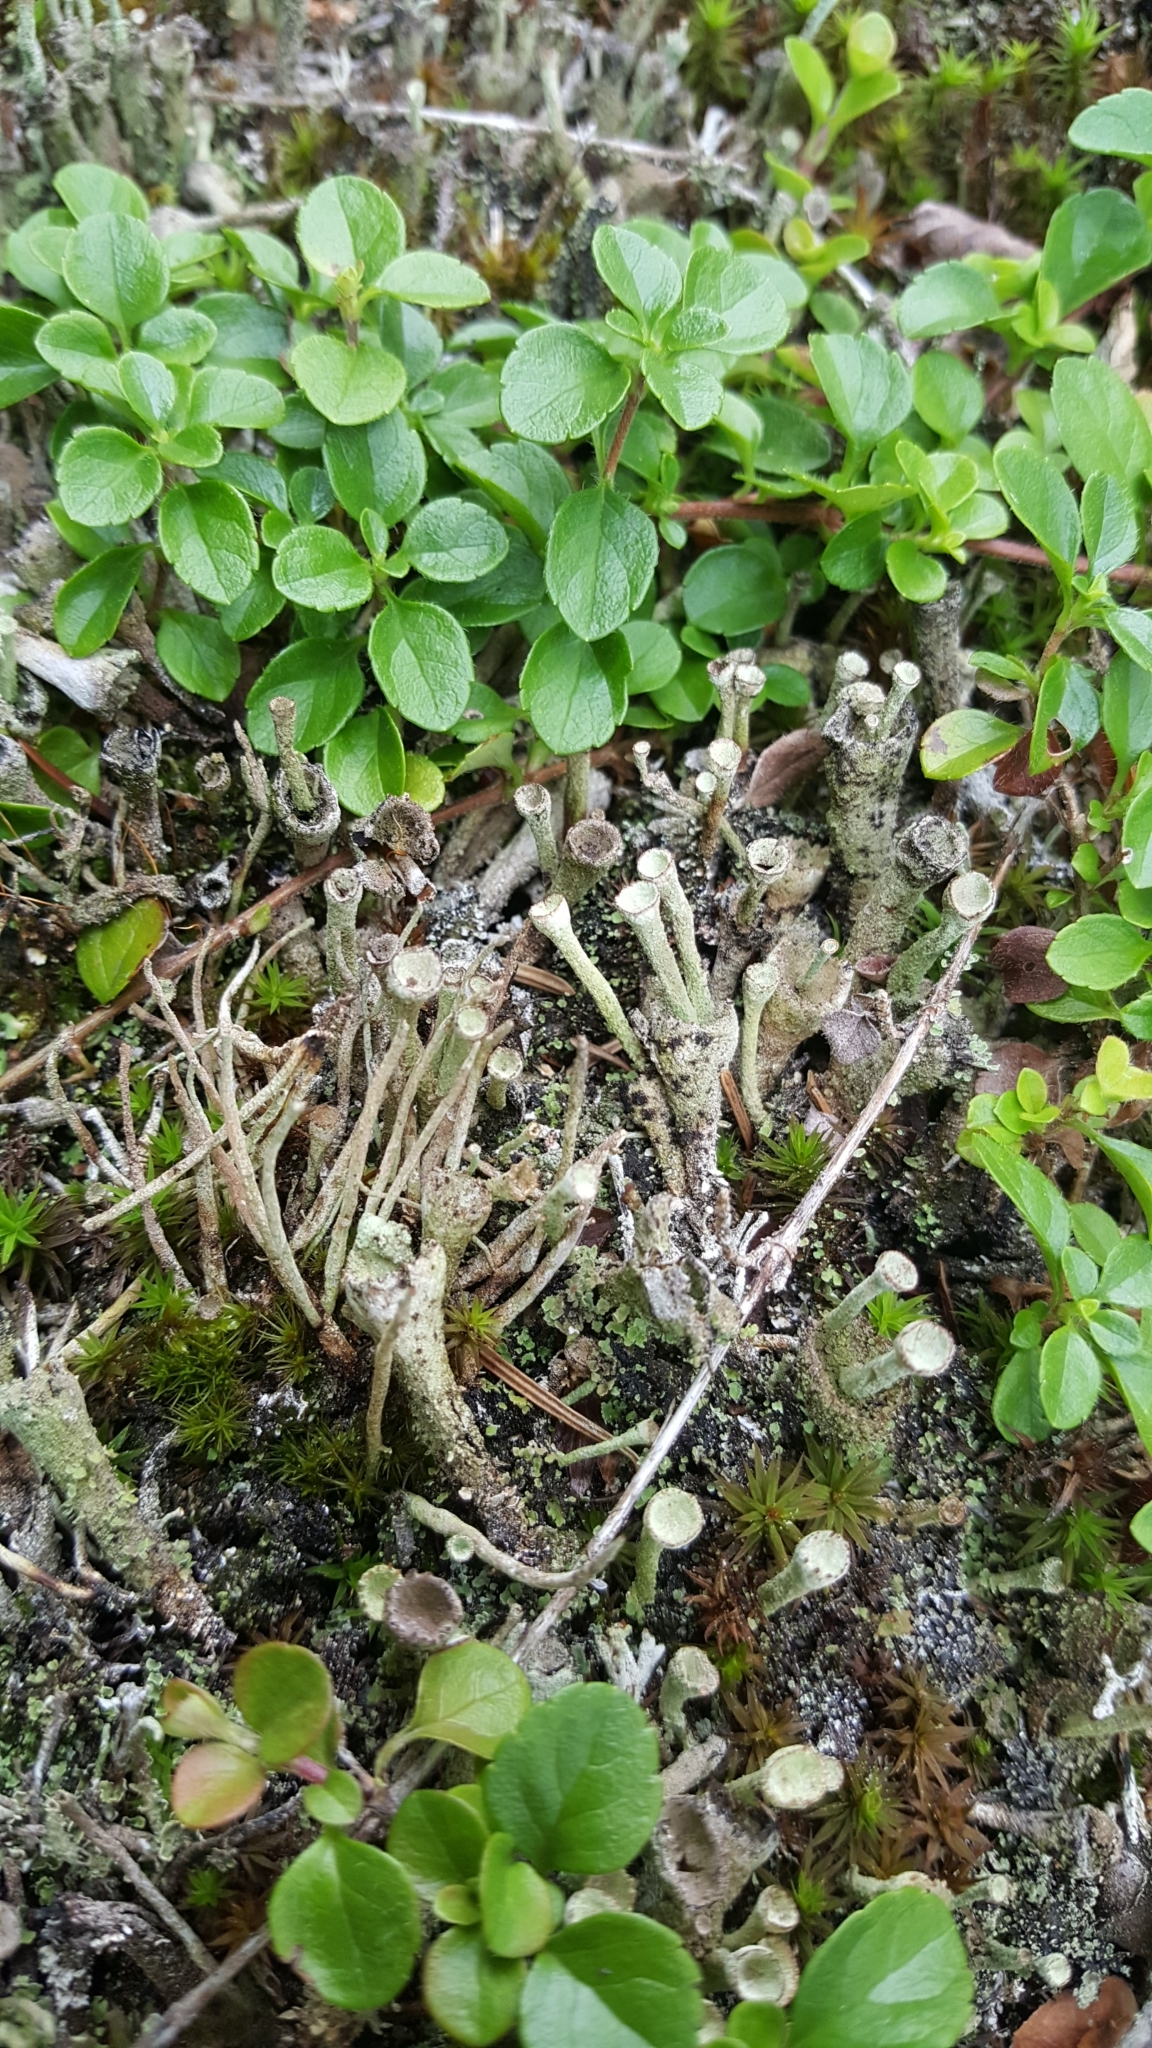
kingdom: Plantae
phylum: Tracheophyta
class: Magnoliopsida
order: Dipsacales
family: Caprifoliaceae
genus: Linnaea
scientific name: Linnaea borealis
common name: Twinflower
